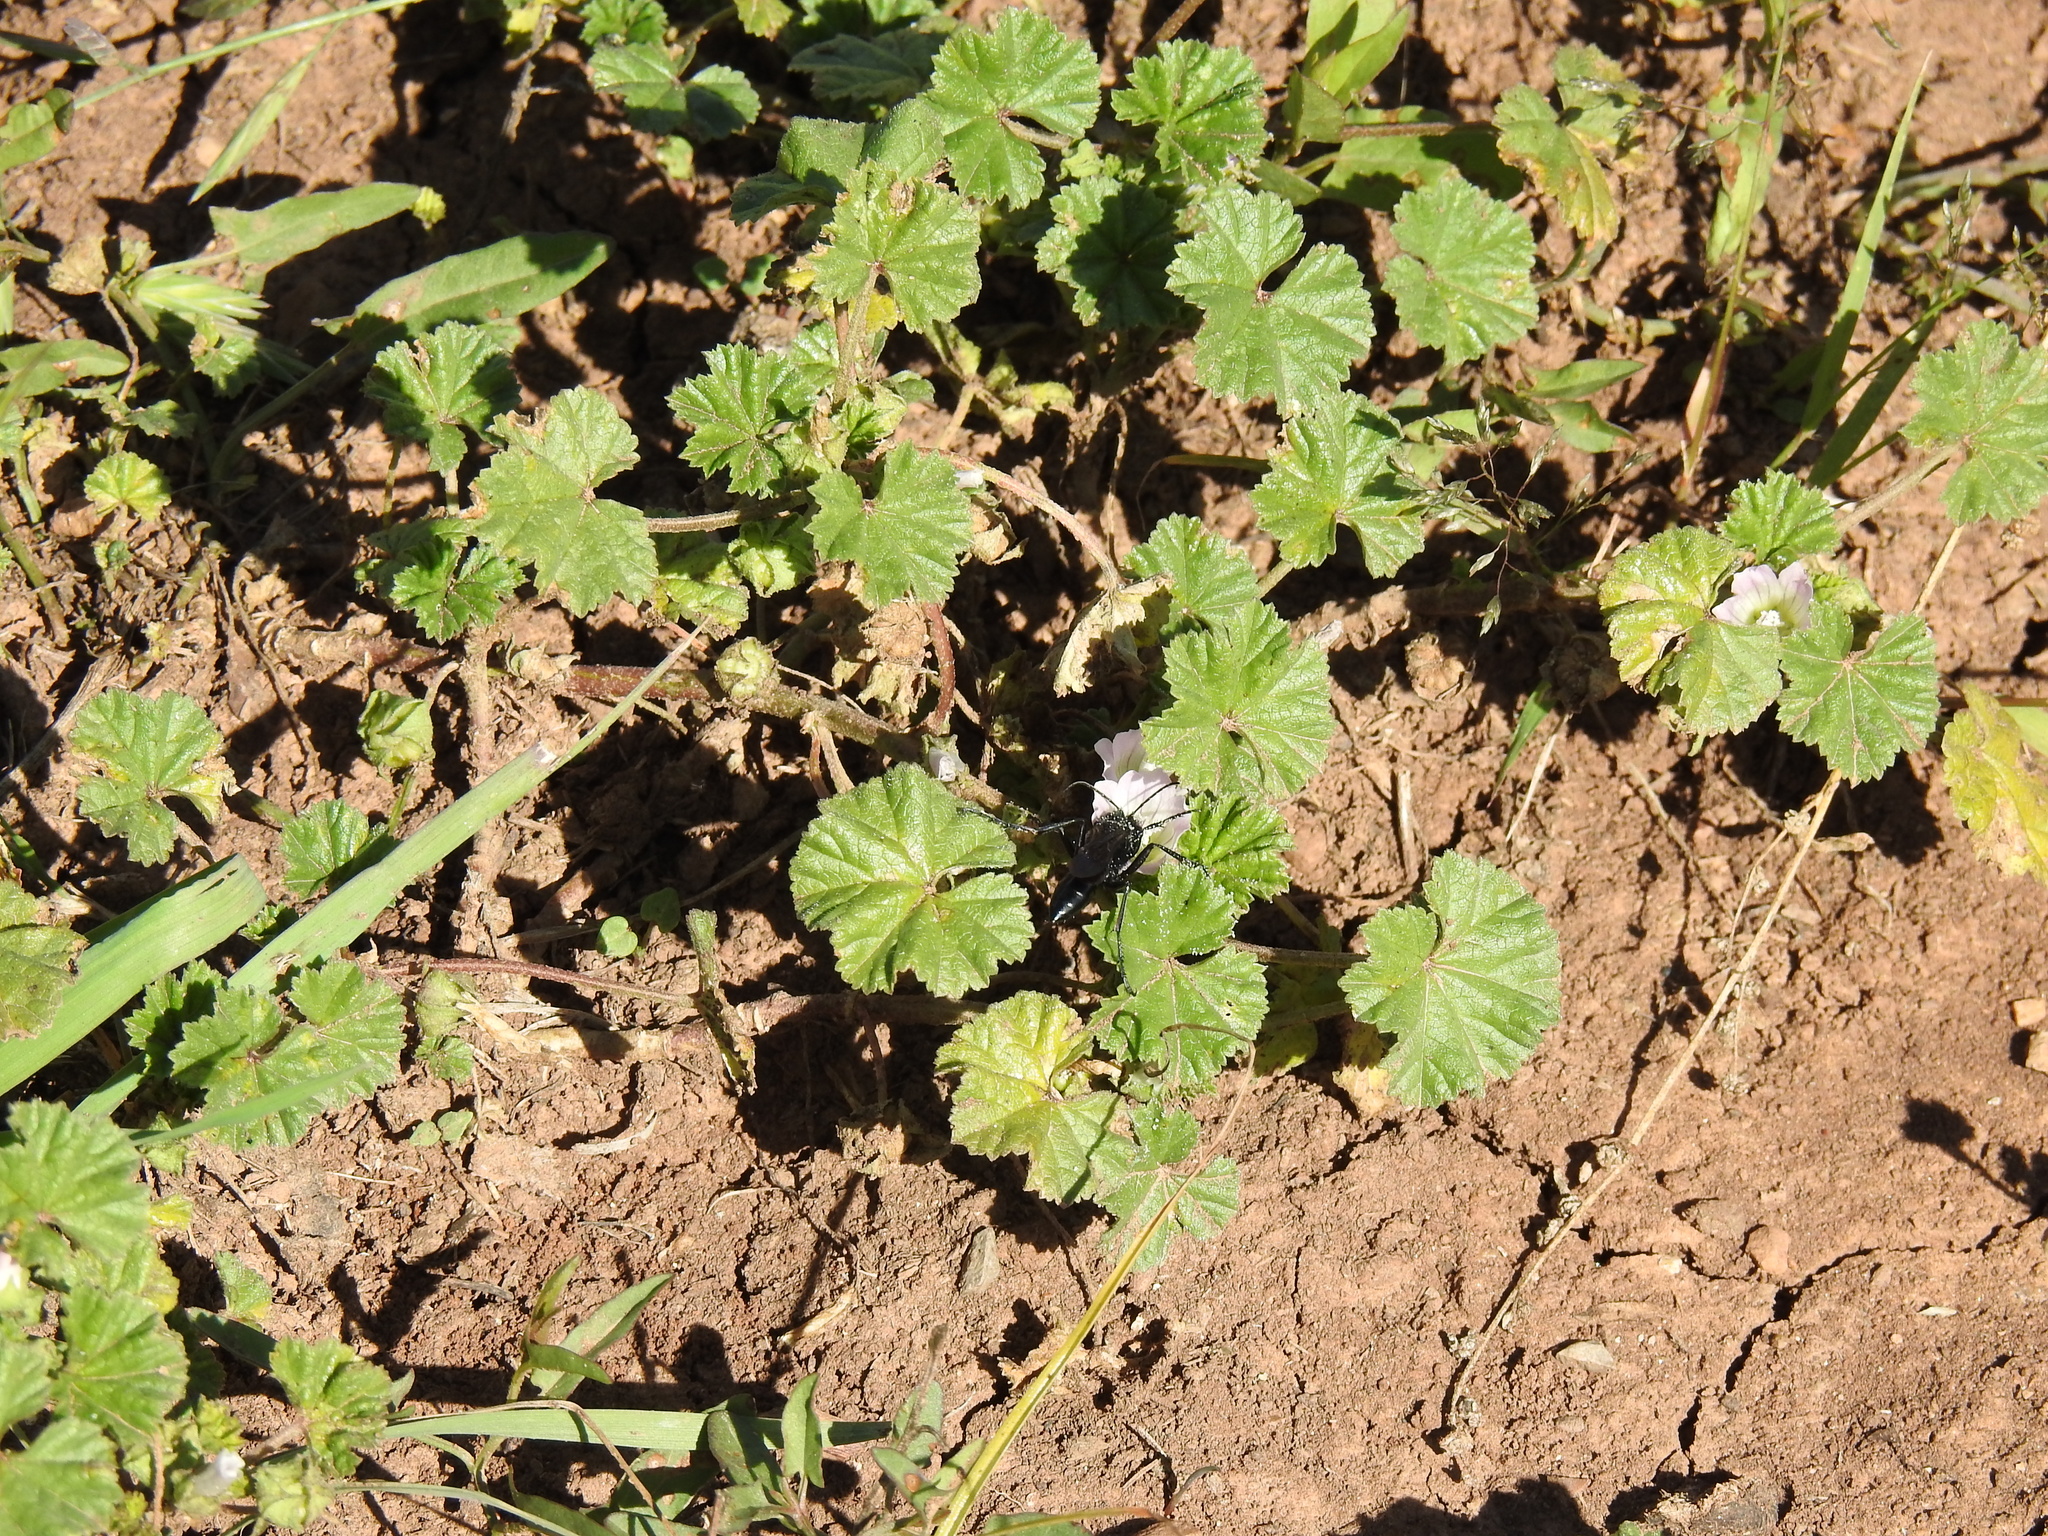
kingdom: Plantae
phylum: Tracheophyta
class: Magnoliopsida
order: Malvales
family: Malvaceae
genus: Malva
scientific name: Malva neglecta
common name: Common mallow
